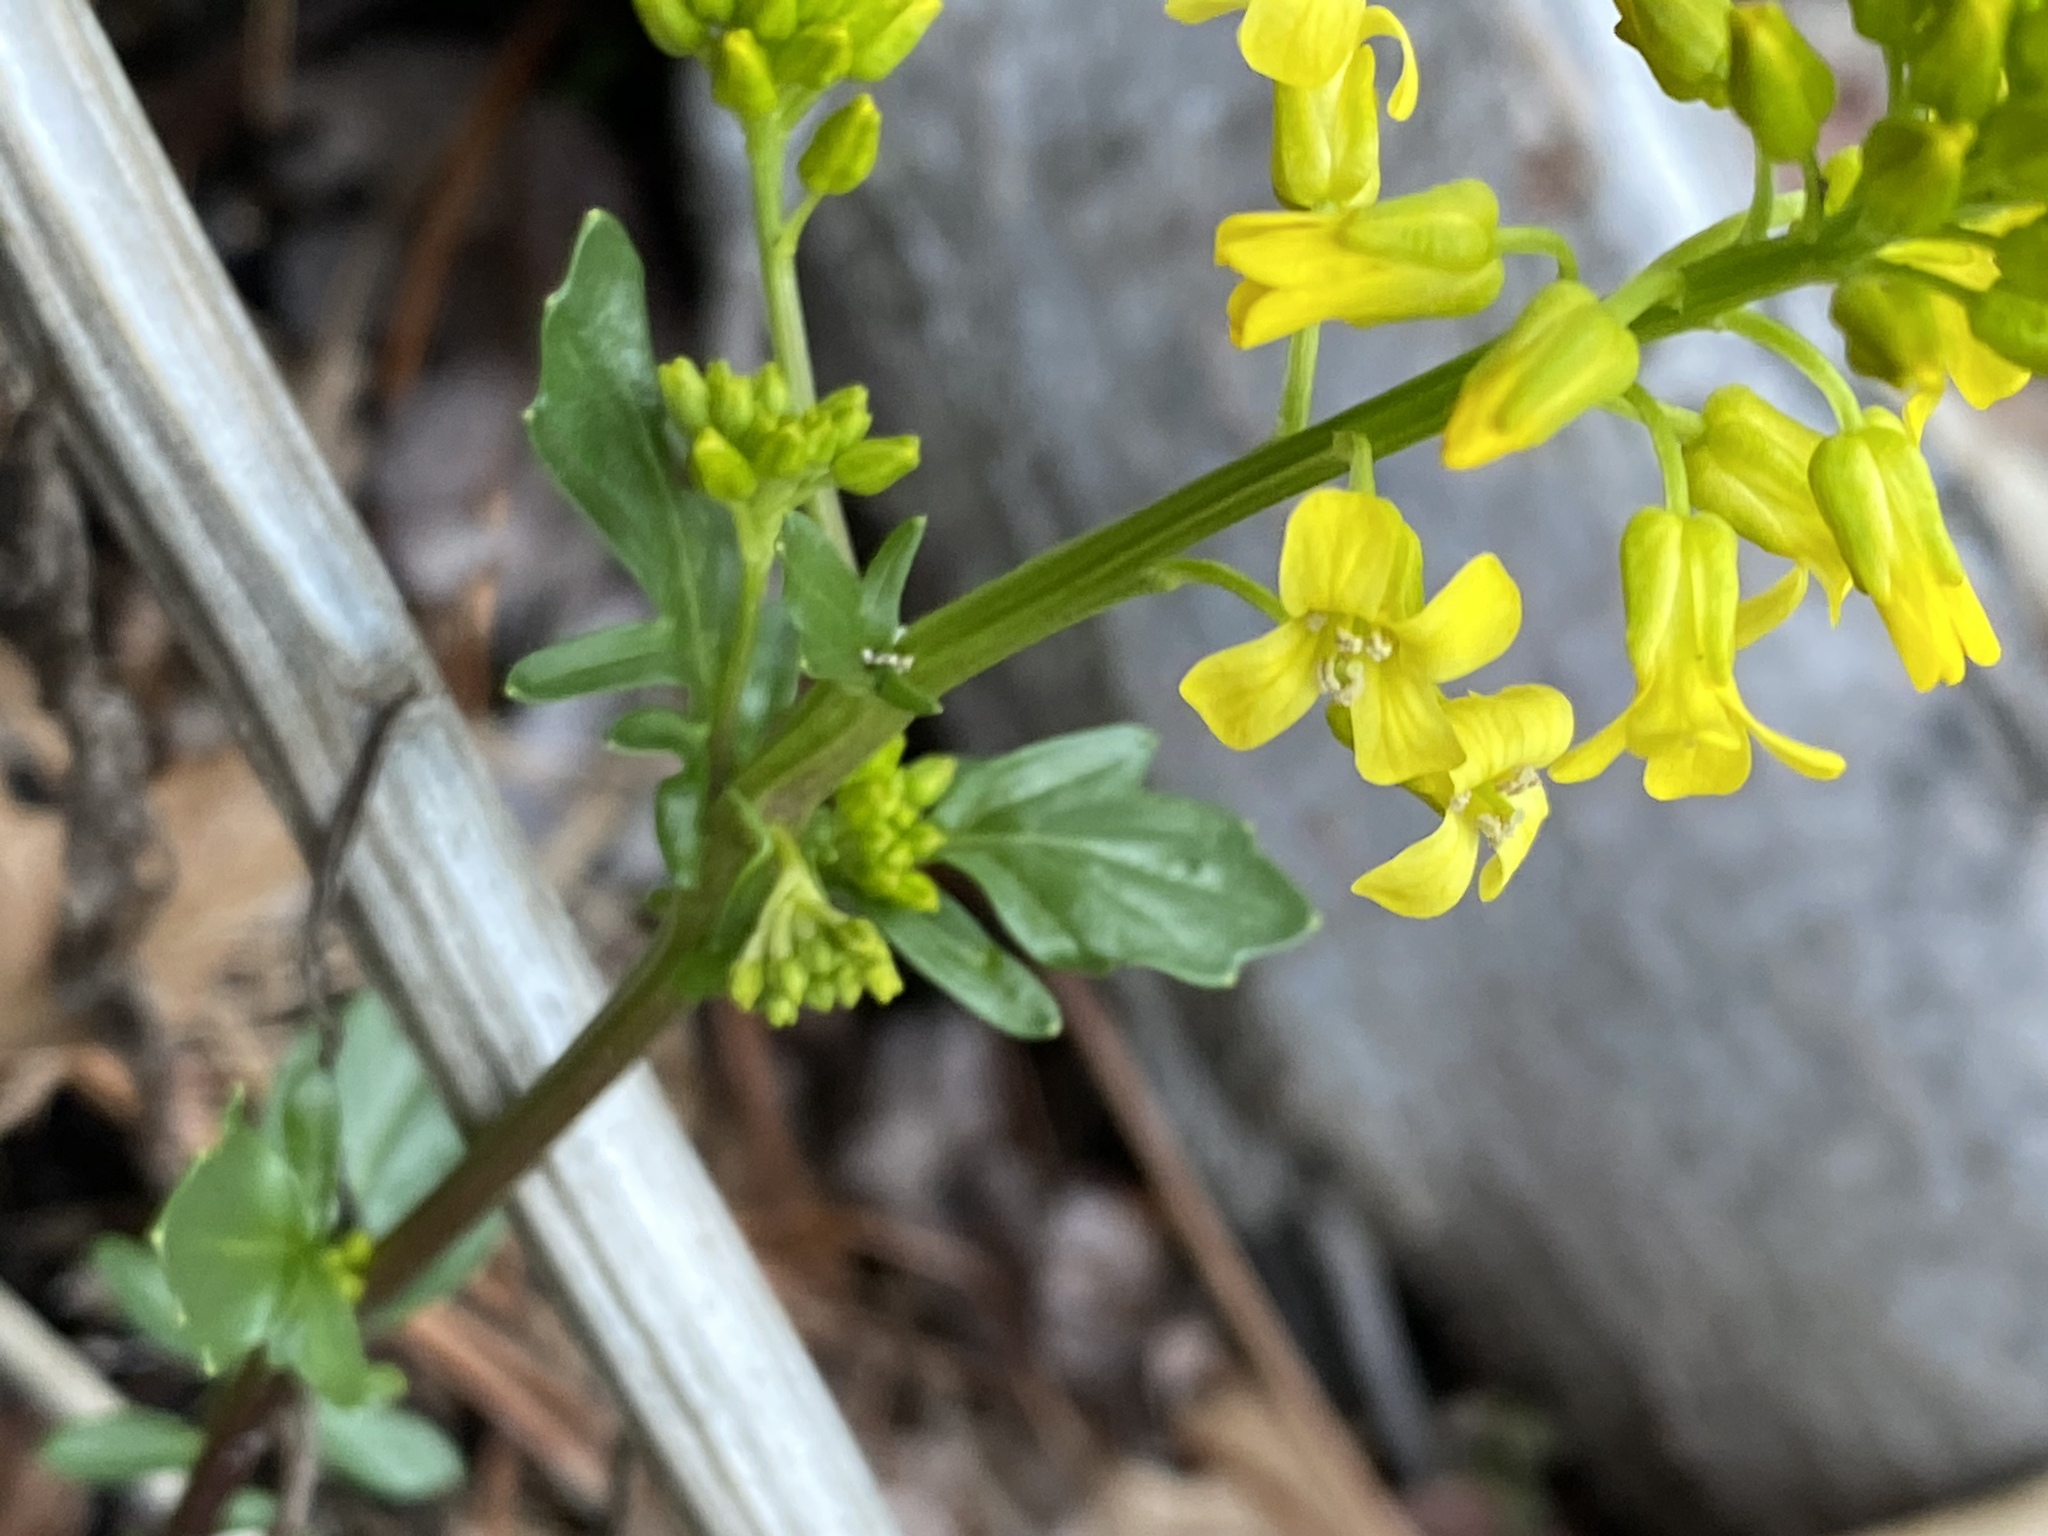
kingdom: Plantae
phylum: Tracheophyta
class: Magnoliopsida
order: Brassicales
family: Brassicaceae
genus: Barbarea
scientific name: Barbarea vulgaris
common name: Cressy-greens
